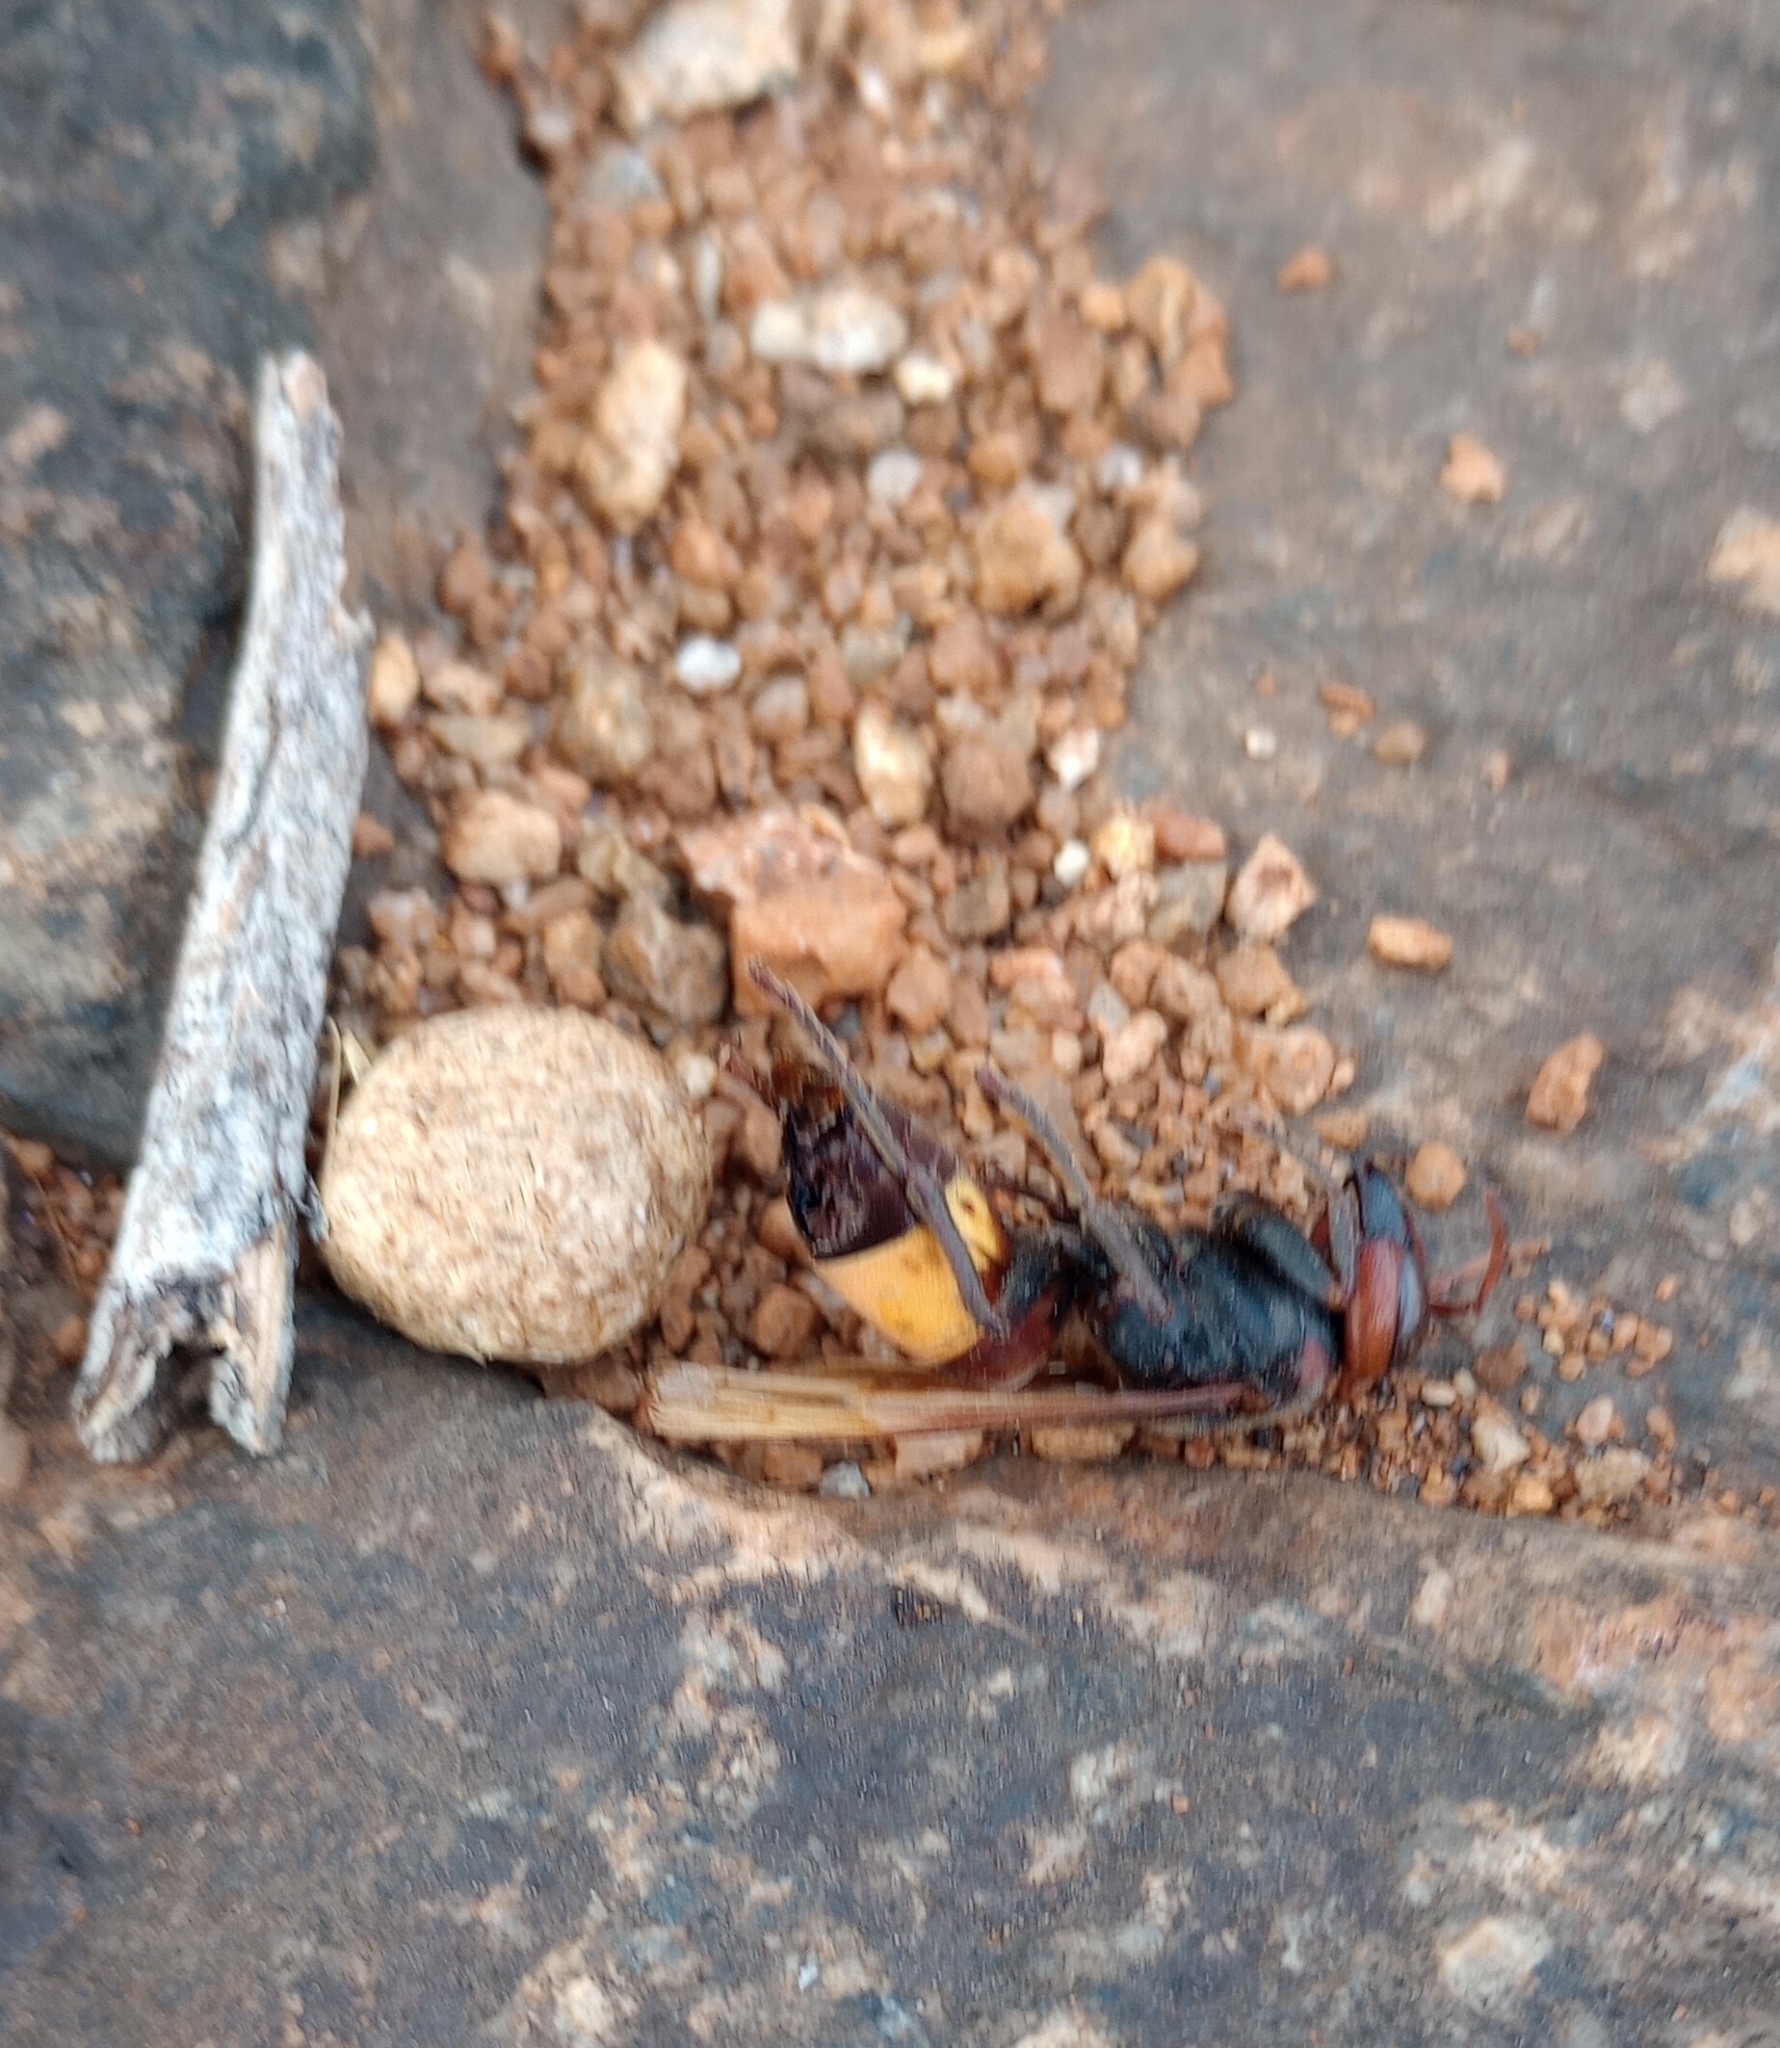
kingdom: Animalia
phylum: Arthropoda
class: Insecta
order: Hymenoptera
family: Vespidae
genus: Vespa
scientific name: Vespa tropica
